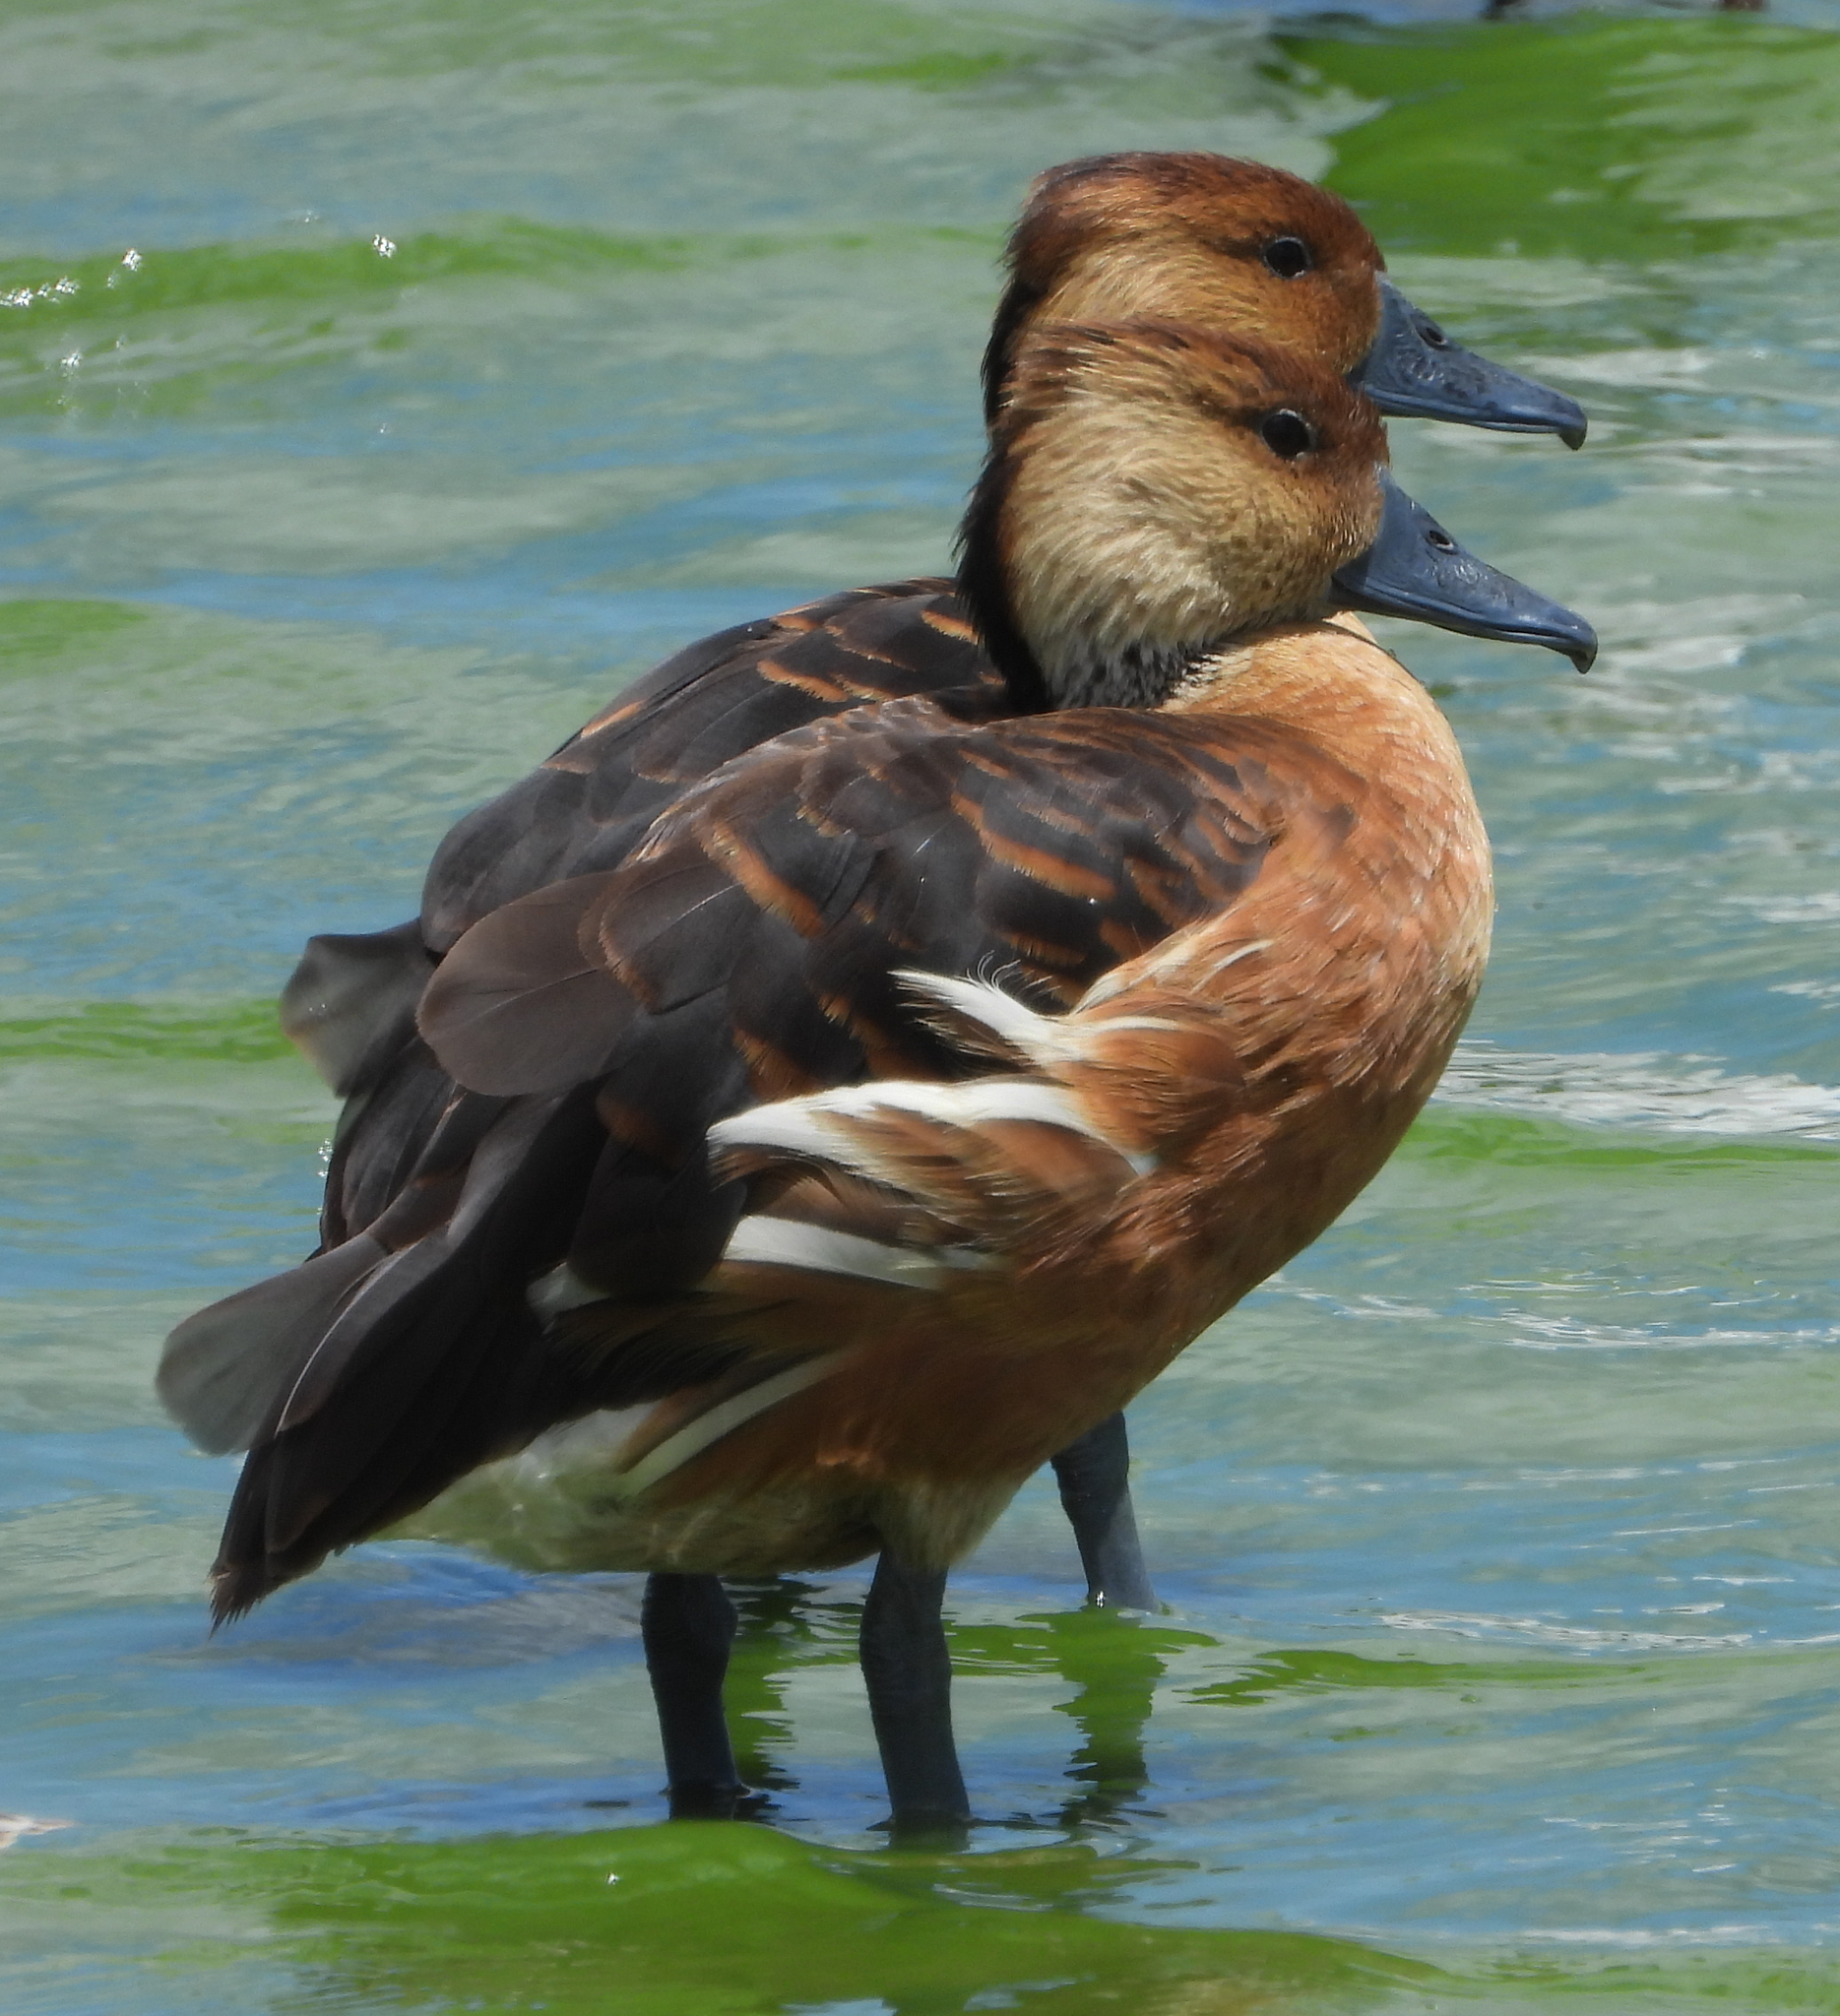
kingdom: Animalia
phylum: Chordata
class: Aves
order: Anseriformes
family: Anatidae
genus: Dendrocygna
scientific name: Dendrocygna bicolor
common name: Fulvous whistling duck
